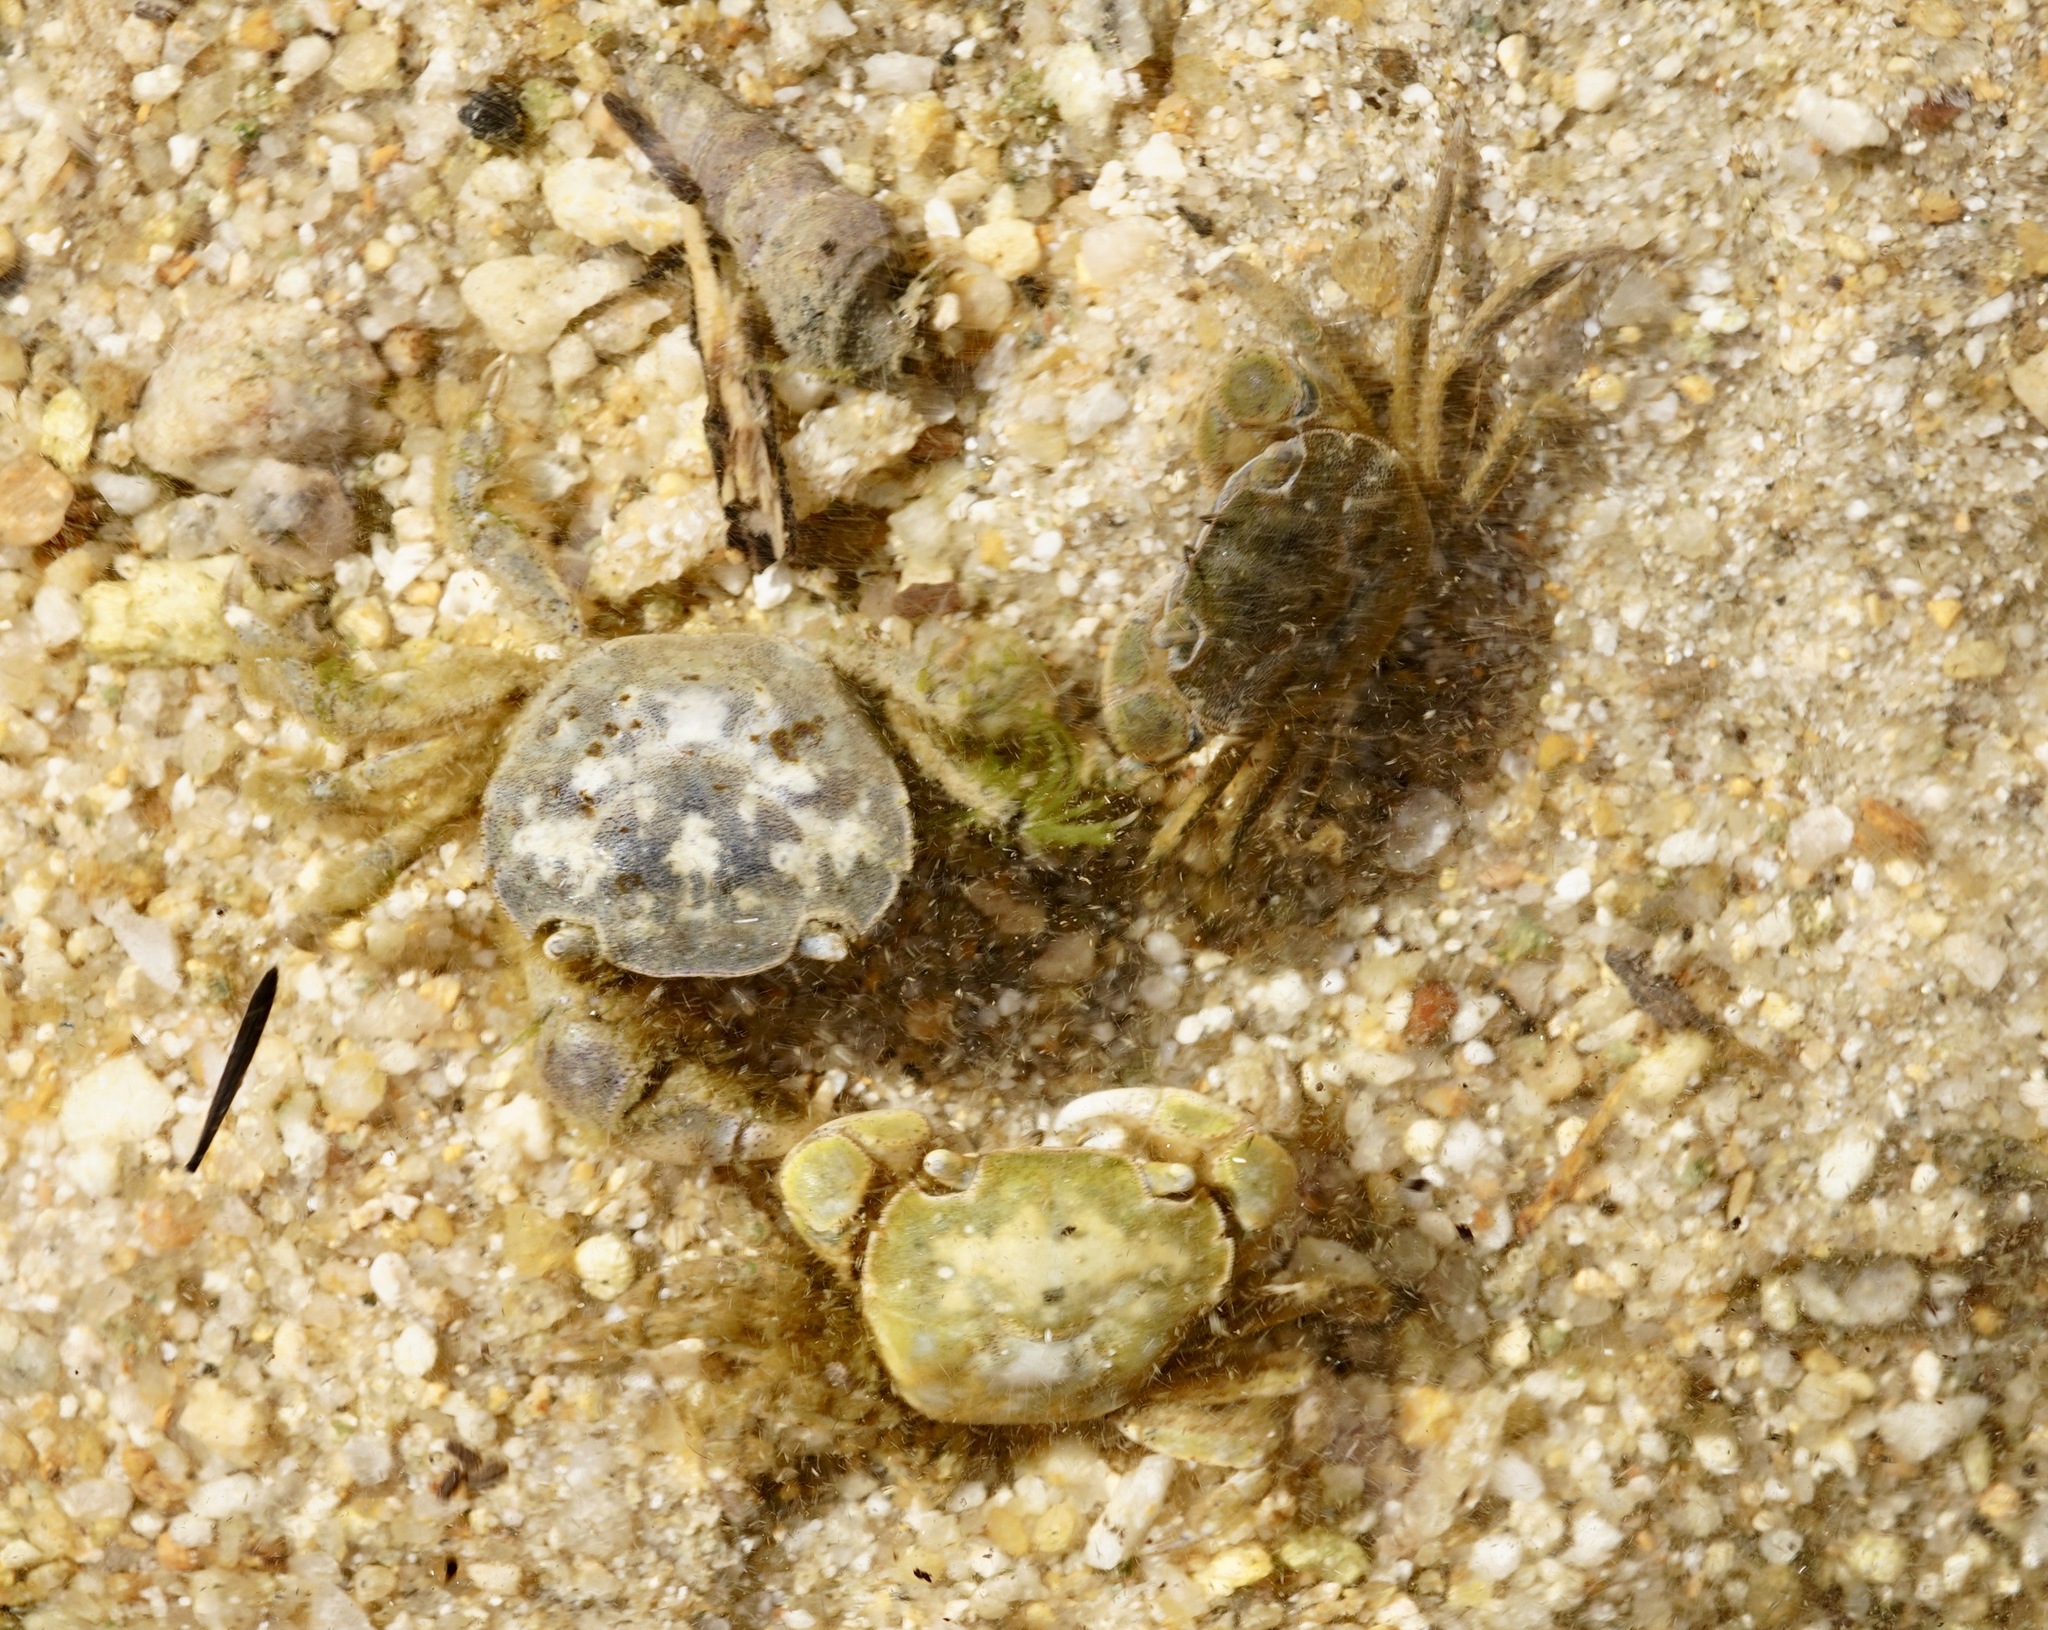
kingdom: Animalia
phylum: Arthropoda
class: Malacostraca
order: Decapoda
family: Varunidae
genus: Hemigrapsus
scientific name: Hemigrapsus crenulatus
